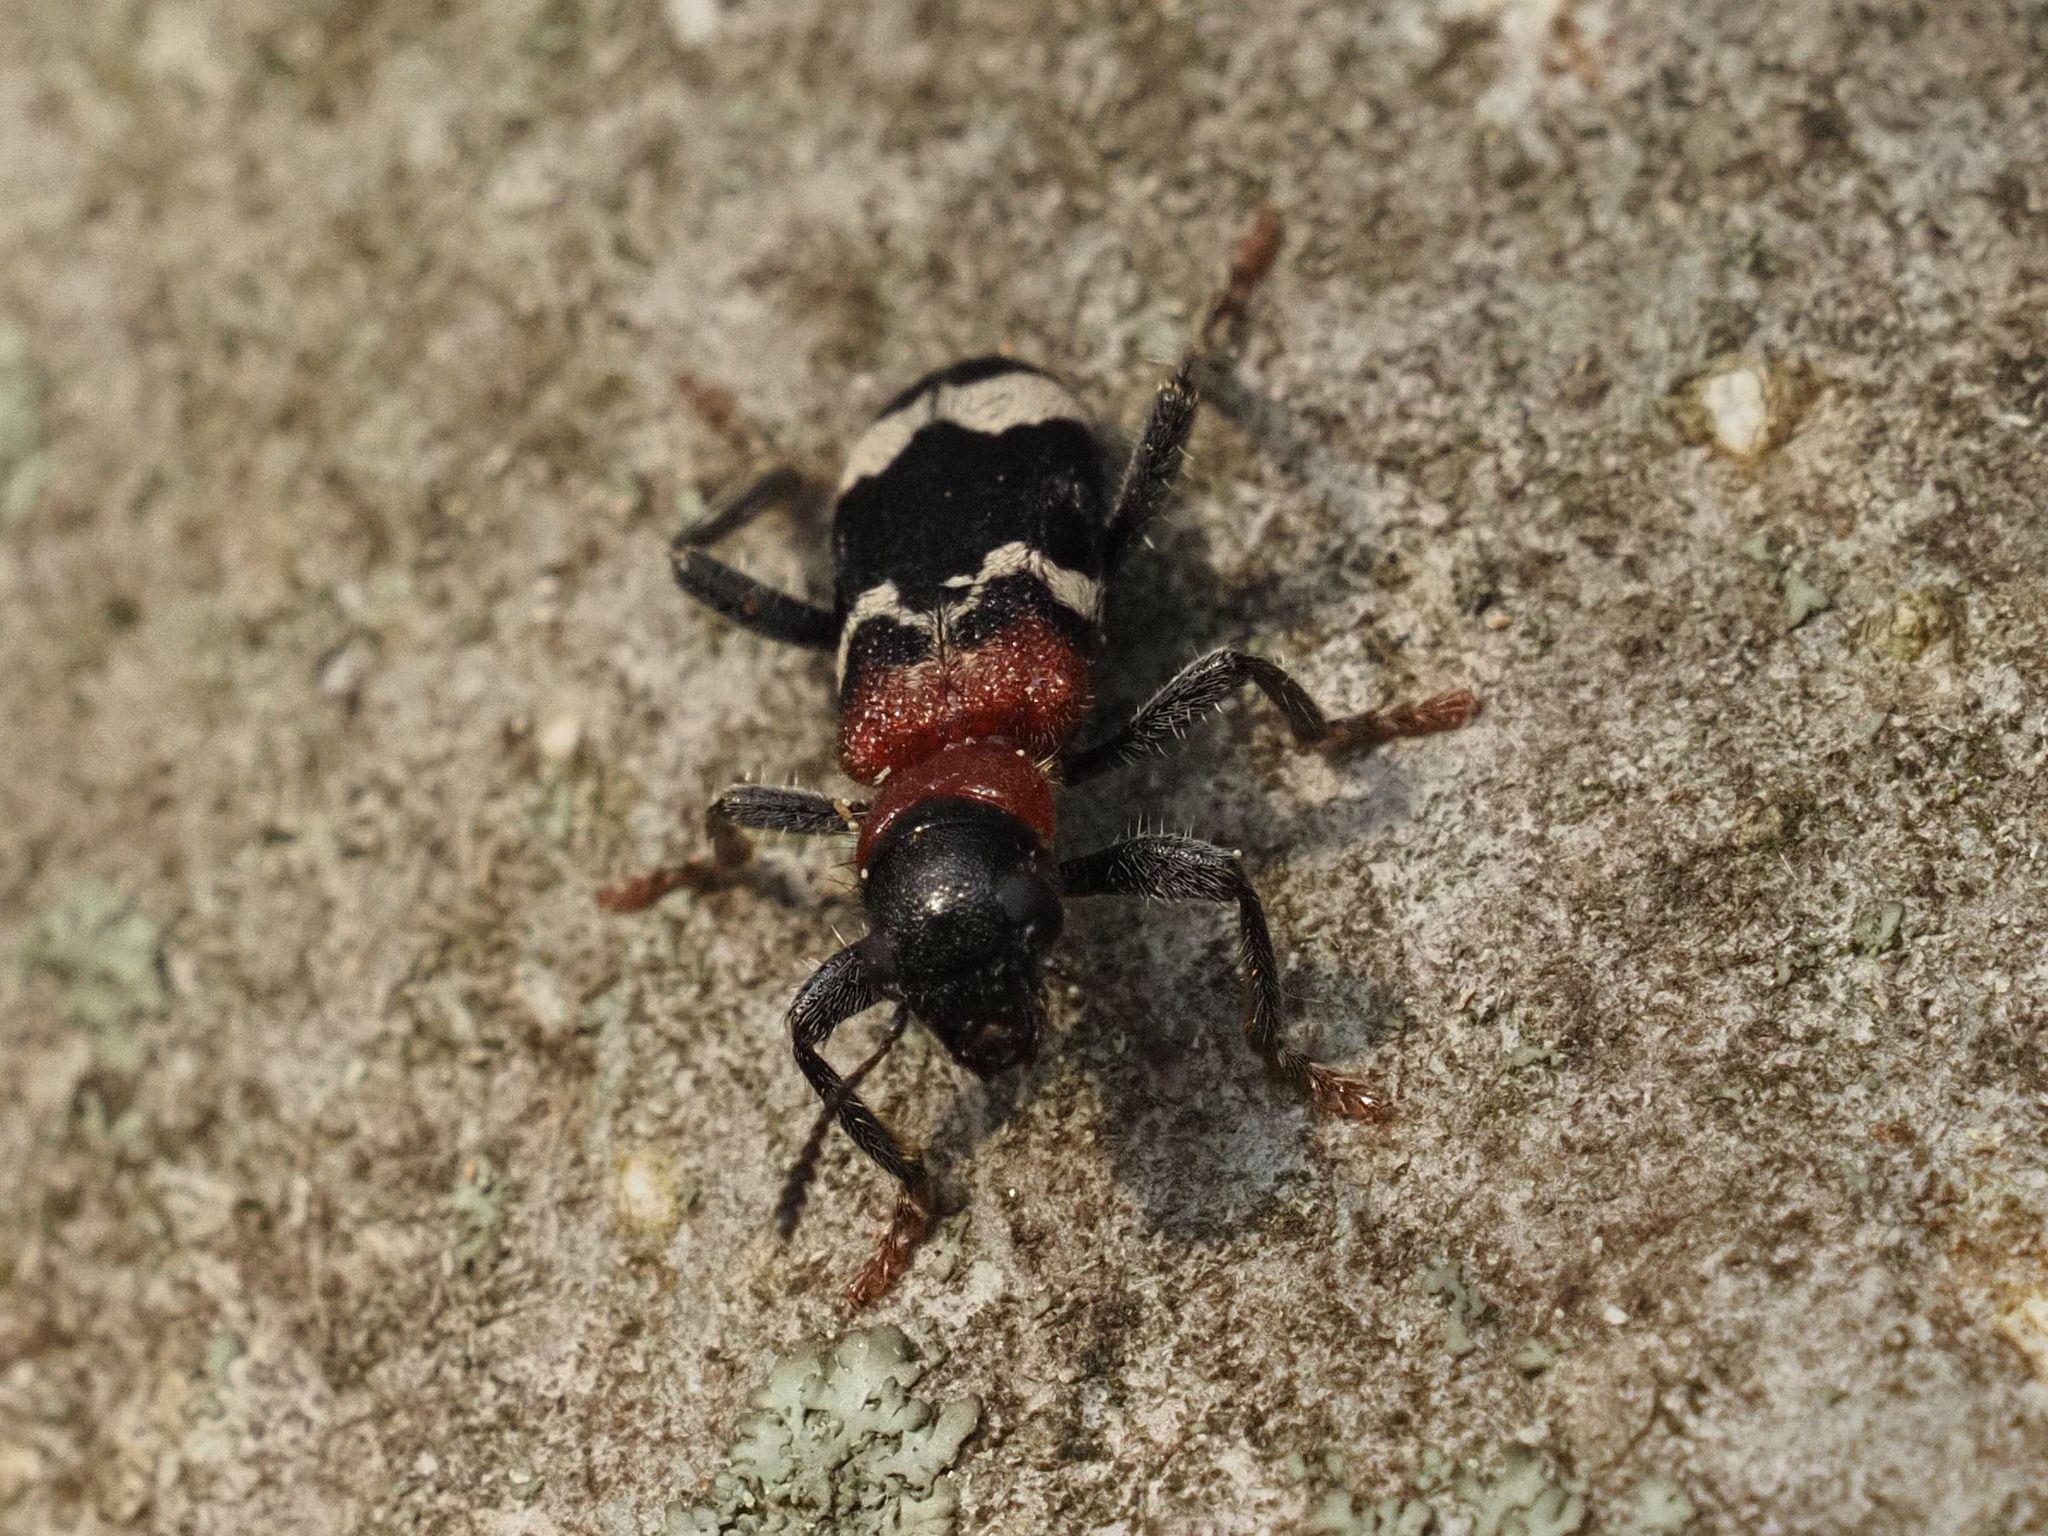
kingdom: Animalia
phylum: Arthropoda
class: Insecta
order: Coleoptera
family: Cleridae
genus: Thanasimus
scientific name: Thanasimus formicarius
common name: Ant beetle
